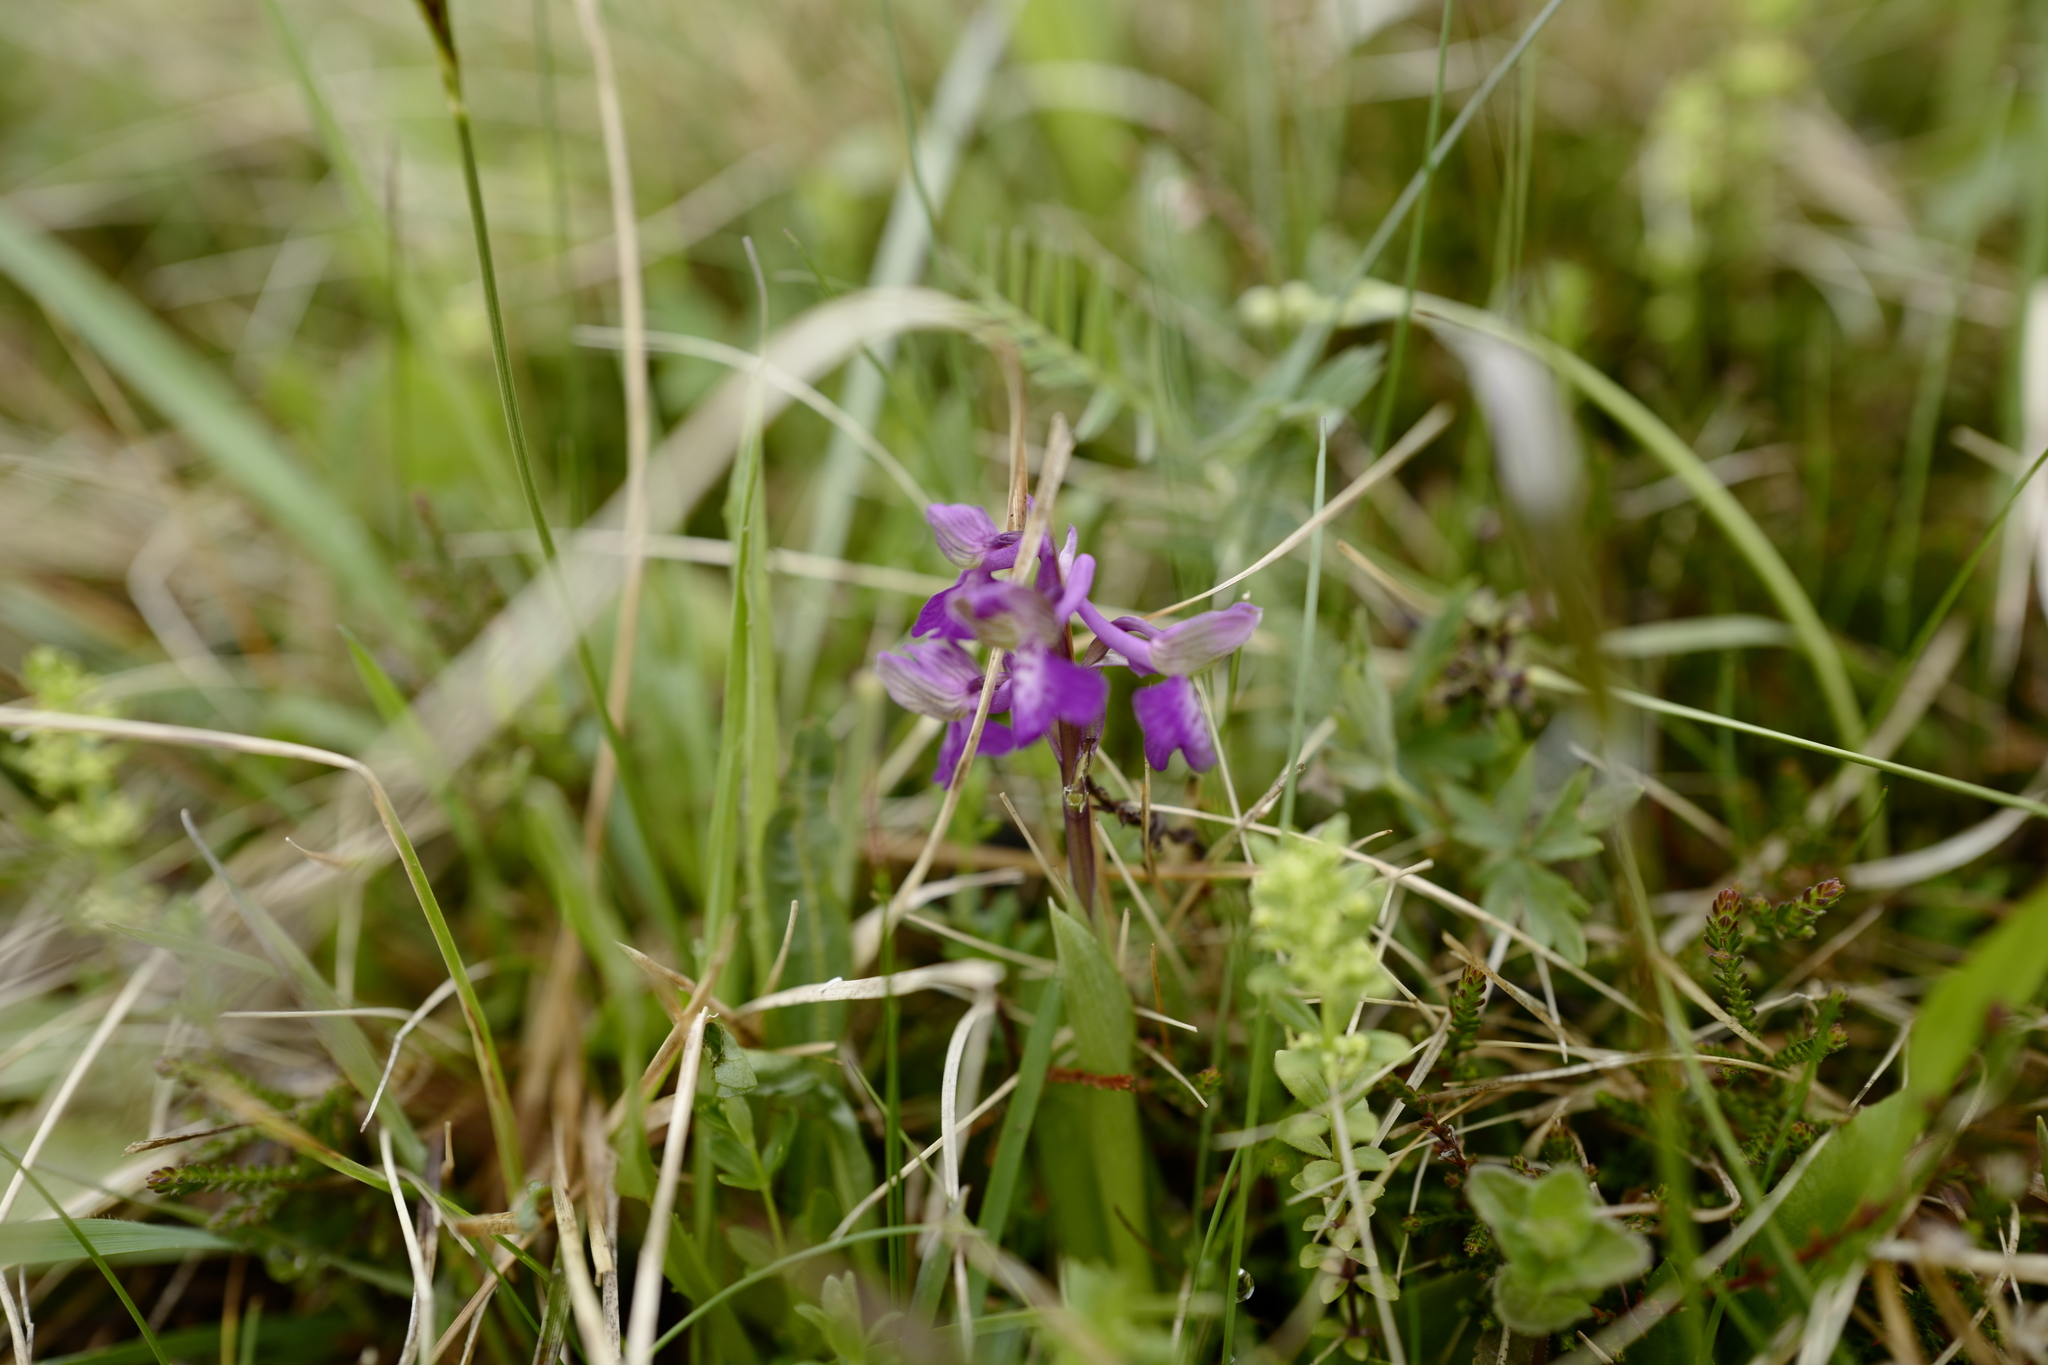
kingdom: Plantae
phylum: Tracheophyta
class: Liliopsida
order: Asparagales
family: Orchidaceae
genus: Anacamptis
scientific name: Anacamptis morio
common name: Green-winged orchid
